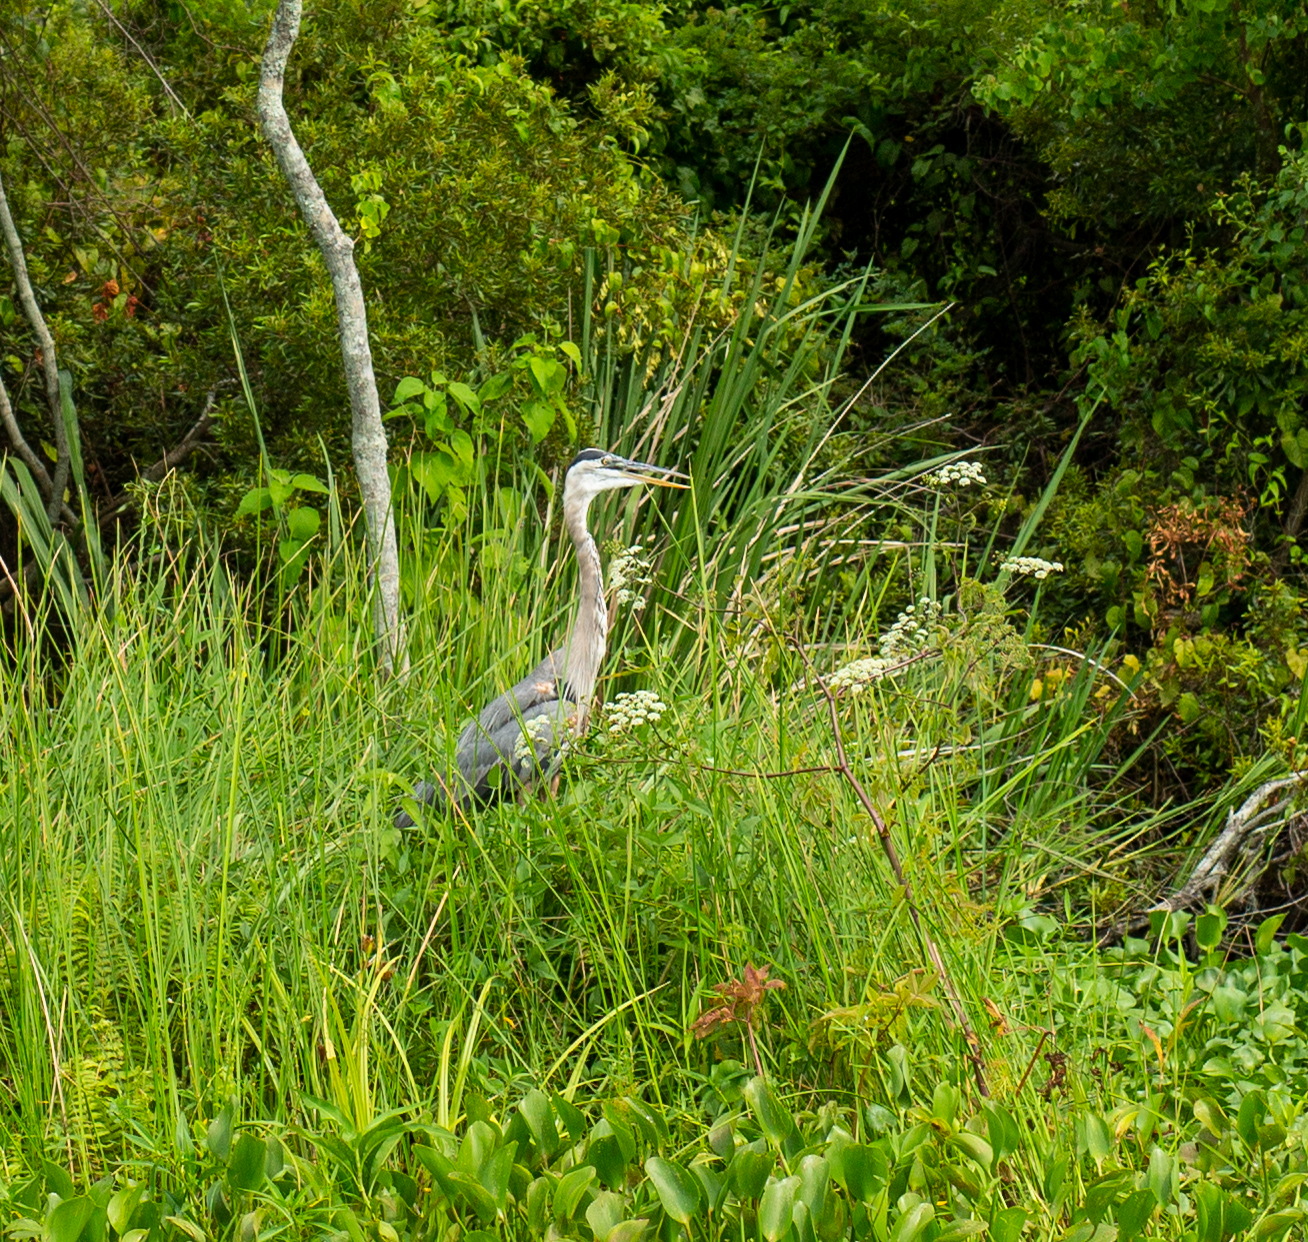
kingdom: Animalia
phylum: Chordata
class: Aves
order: Pelecaniformes
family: Ardeidae
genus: Ardea
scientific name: Ardea herodias
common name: Great blue heron
